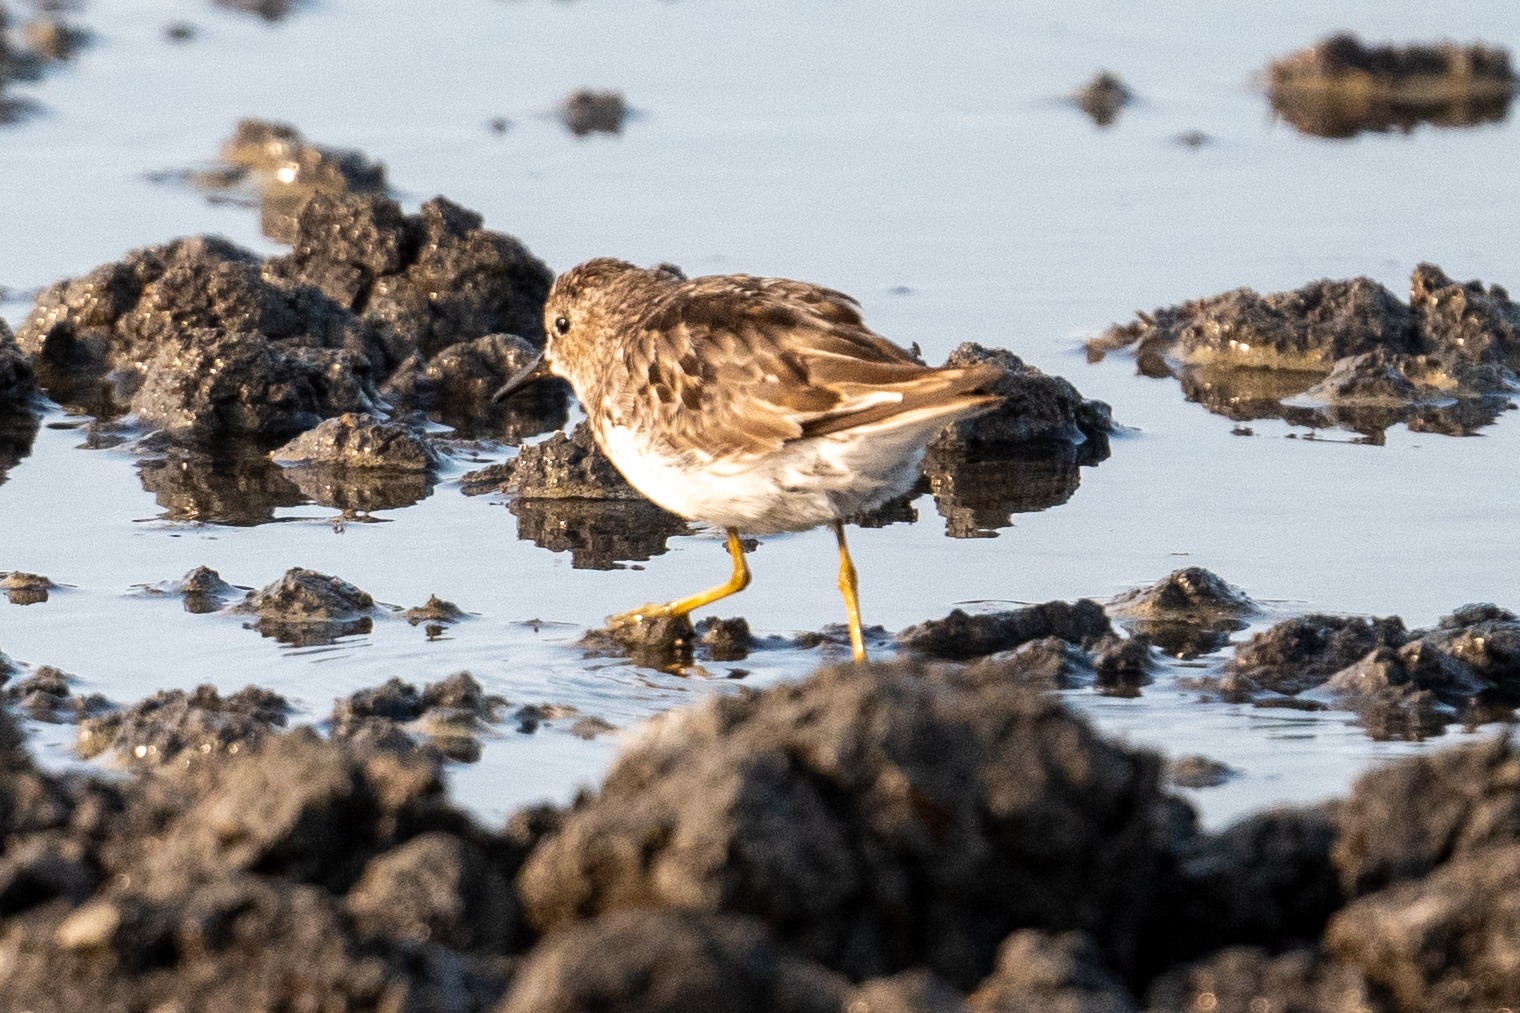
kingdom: Animalia
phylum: Chordata
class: Aves
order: Charadriiformes
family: Scolopacidae
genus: Calidris
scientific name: Calidris minutilla
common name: Least sandpiper
